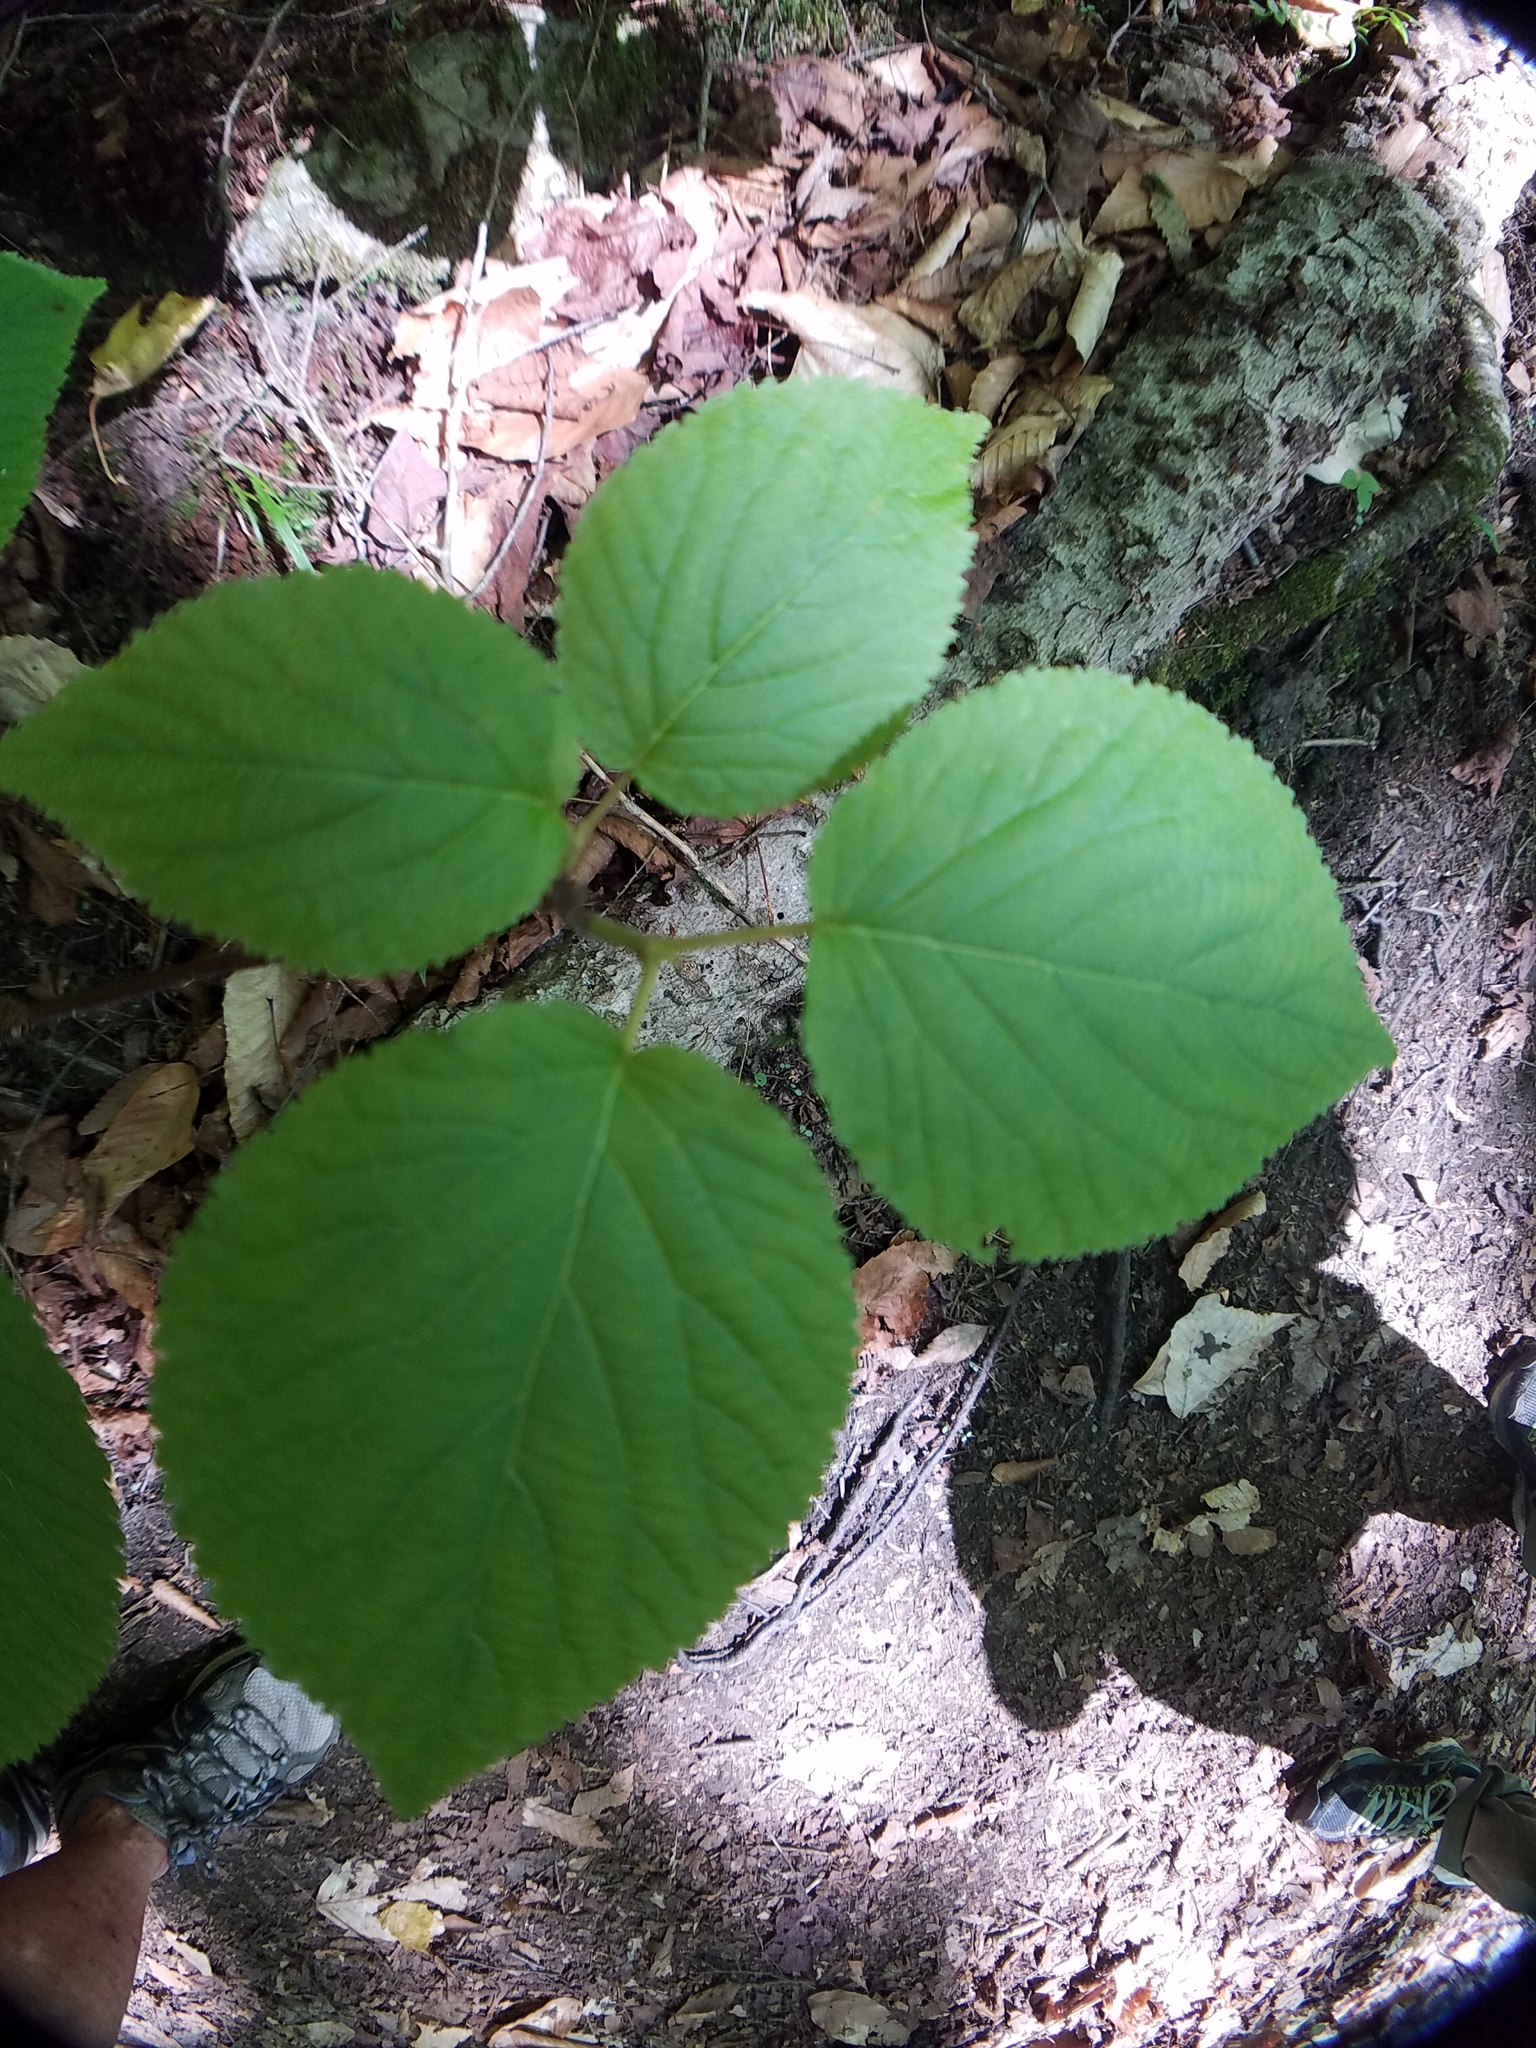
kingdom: Plantae
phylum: Tracheophyta
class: Magnoliopsida
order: Dipsacales
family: Viburnaceae
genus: Viburnum
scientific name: Viburnum lantanoides
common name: Hobblebush
